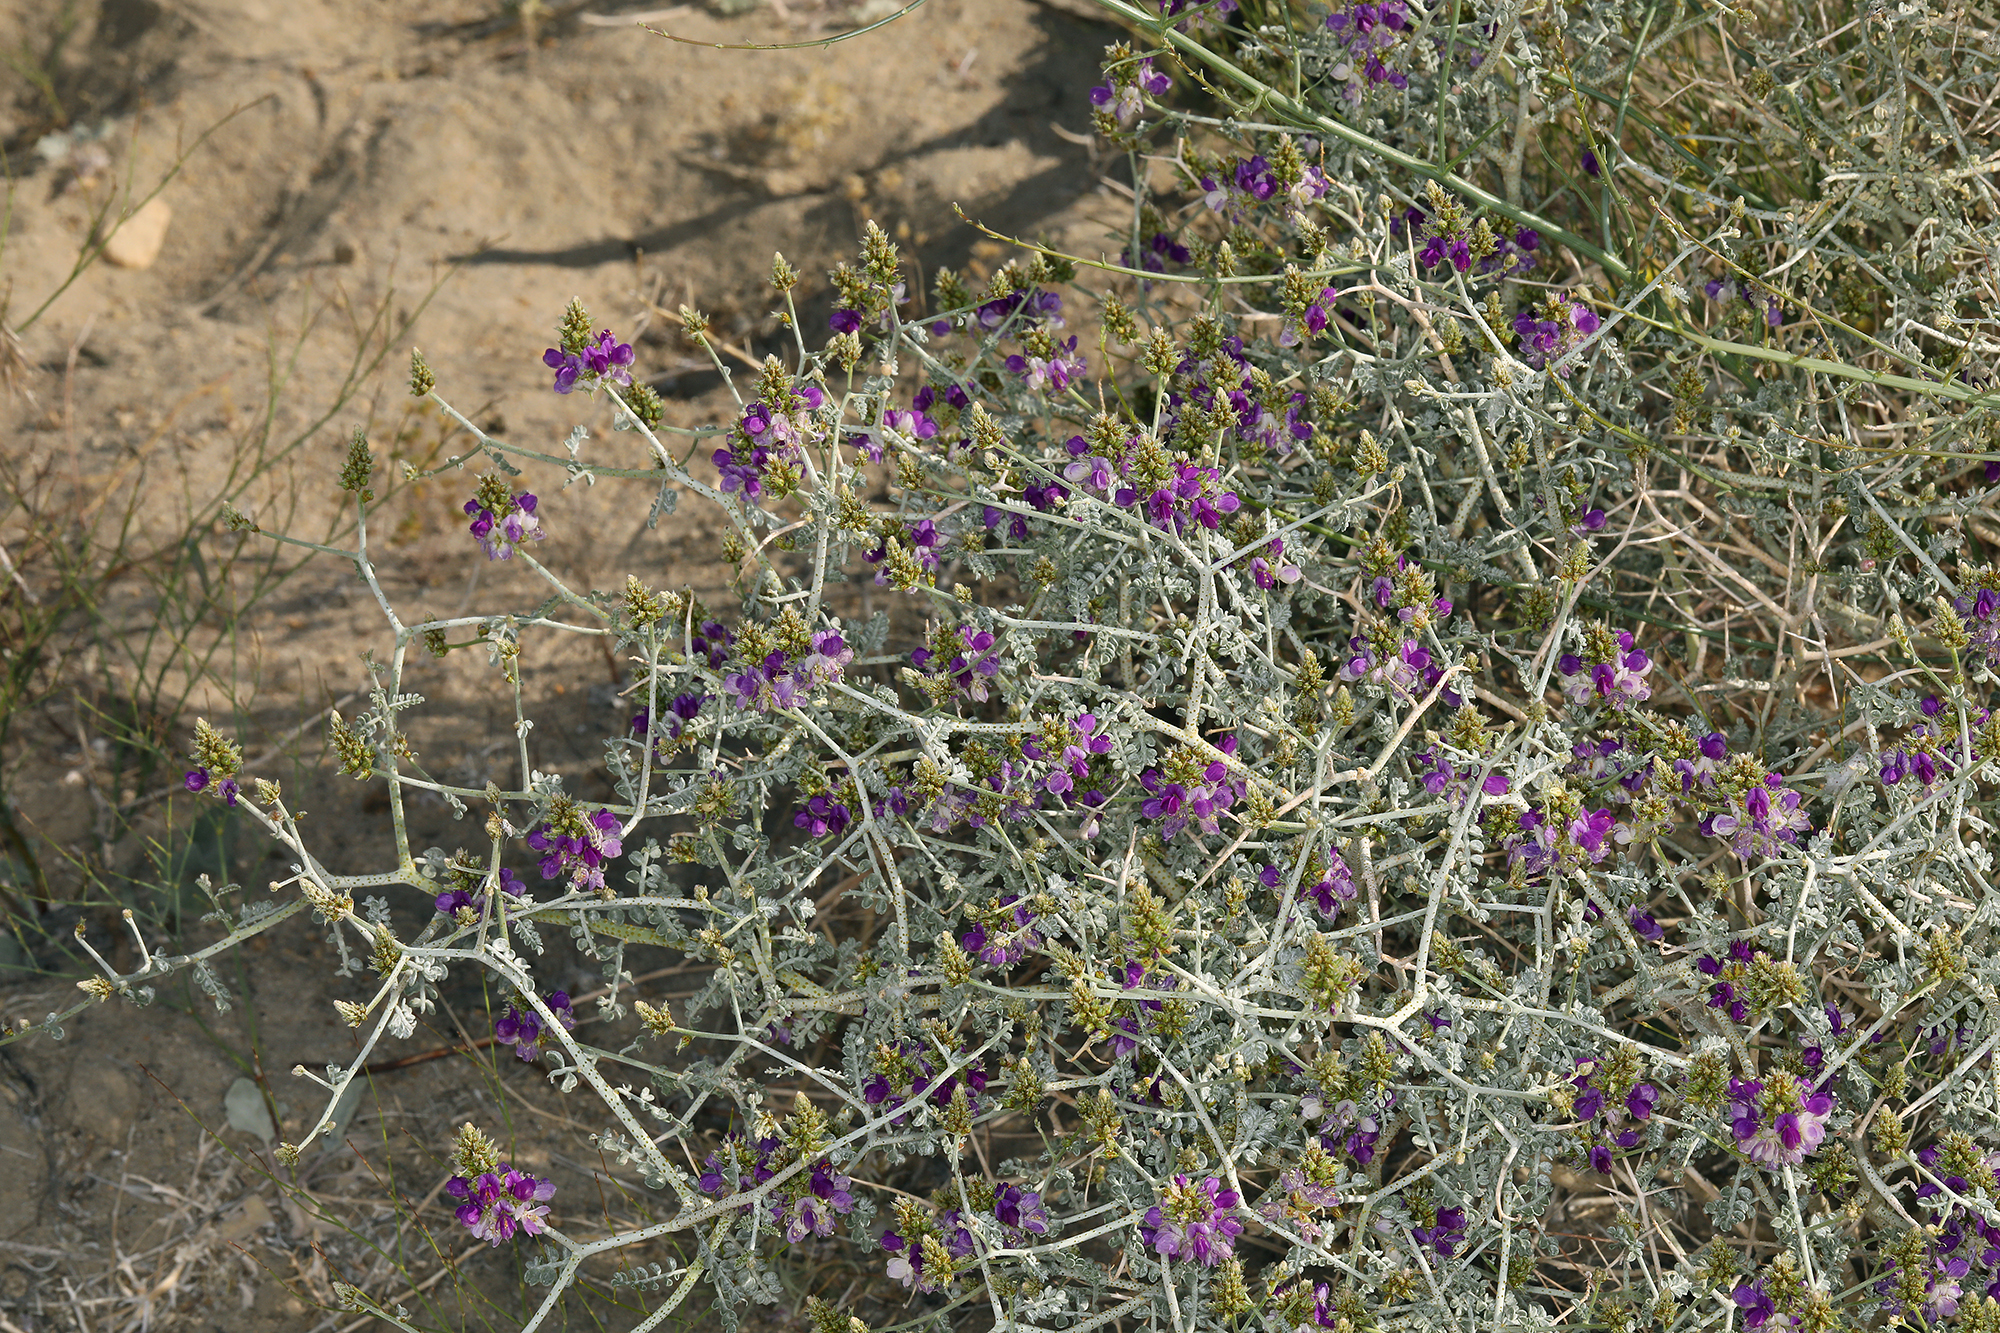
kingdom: Plantae
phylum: Tracheophyta
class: Magnoliopsida
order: Fabales
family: Fabaceae
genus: Psorothamnus
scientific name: Psorothamnus polydenius
